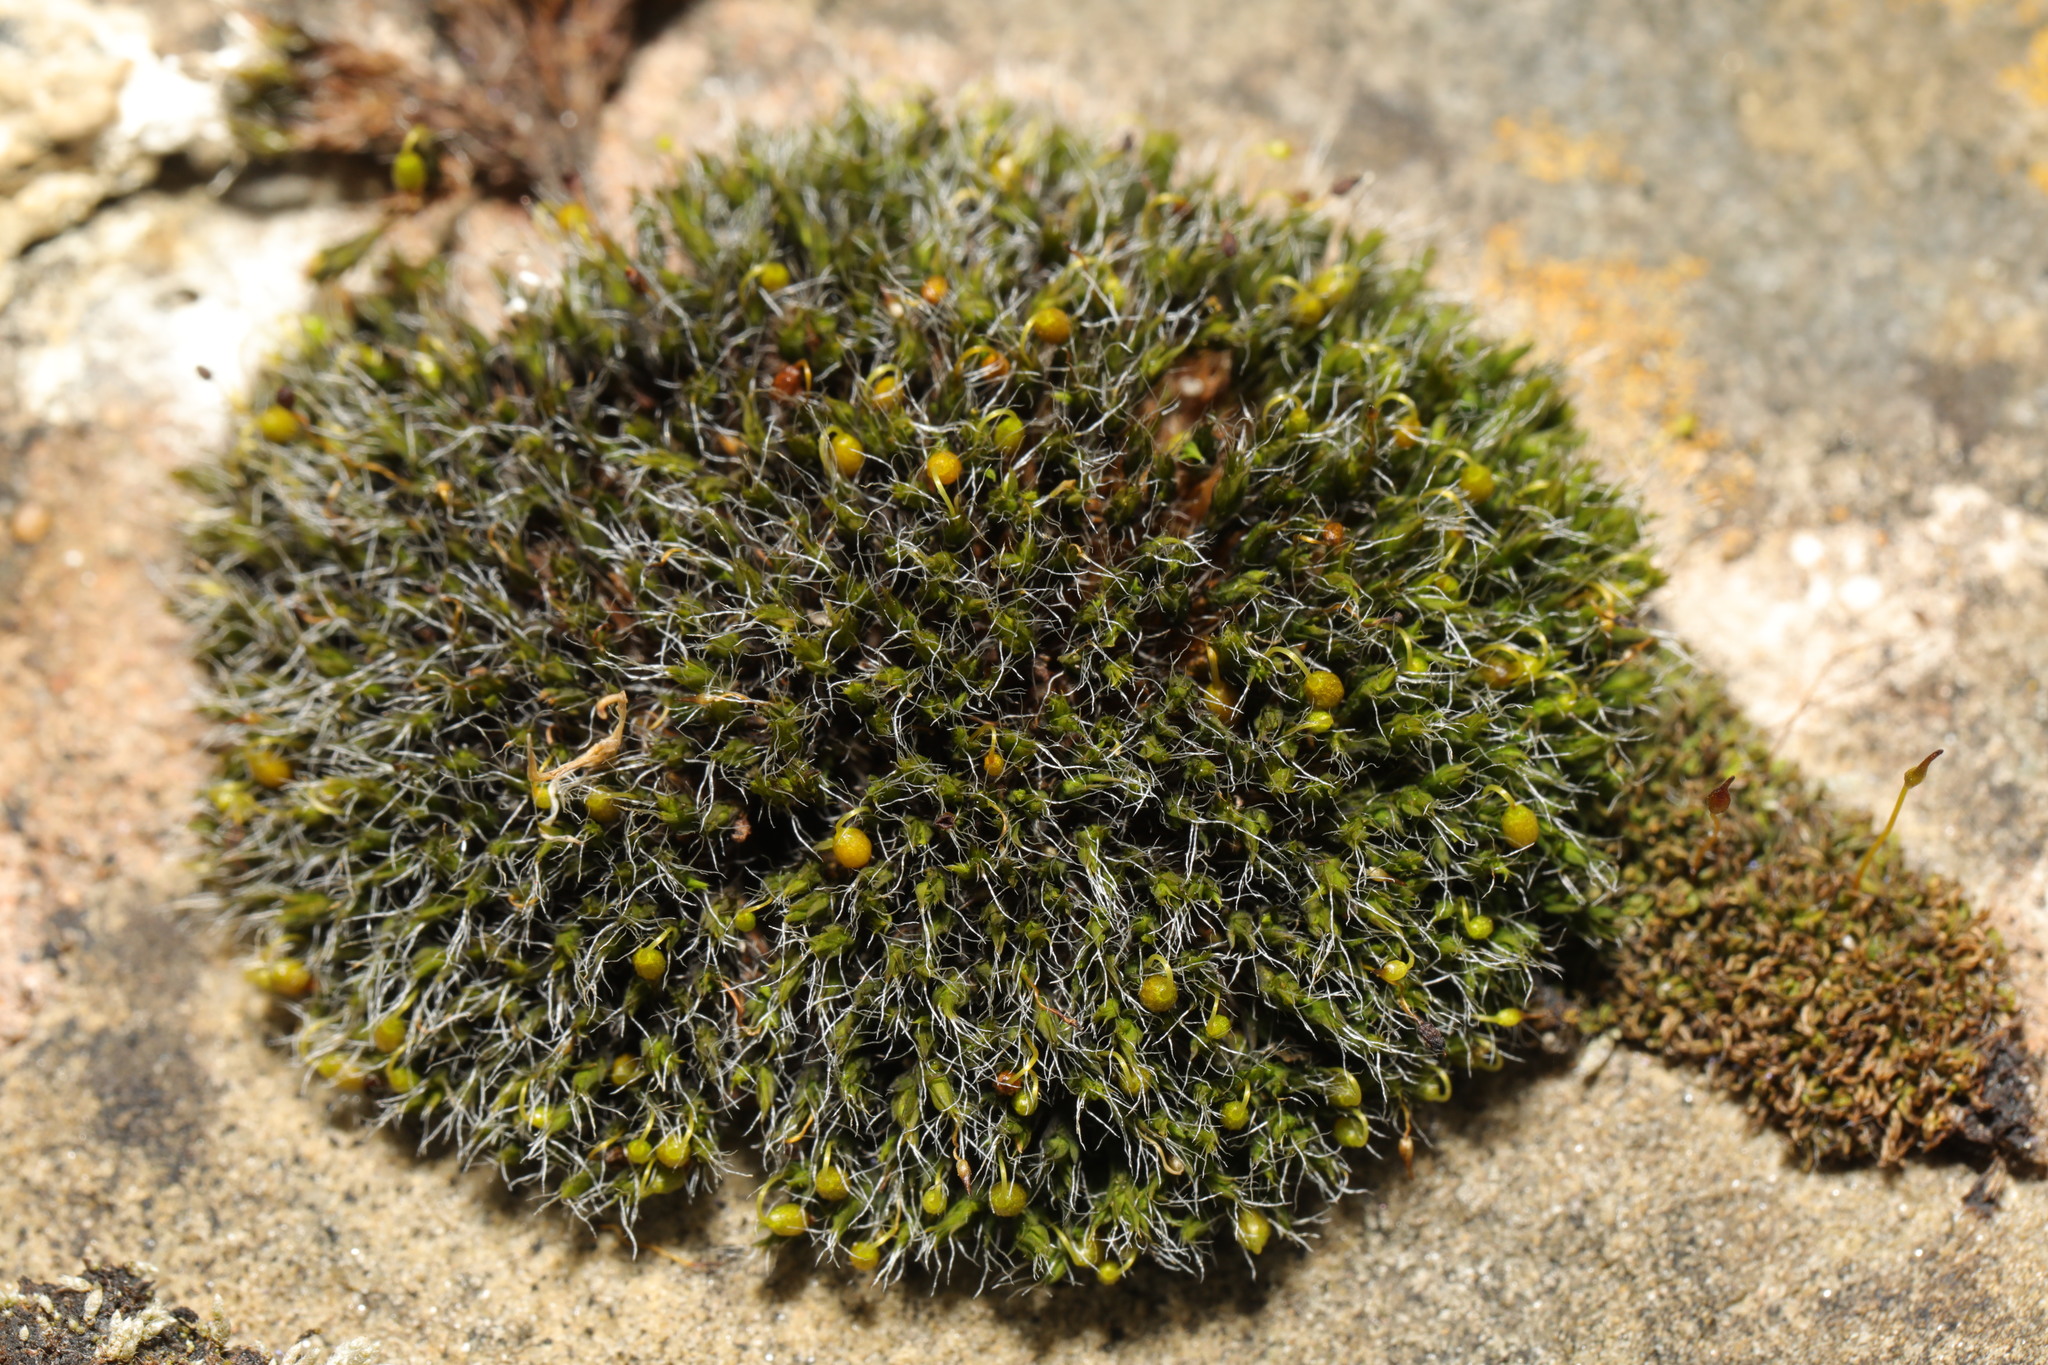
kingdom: Plantae
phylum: Bryophyta
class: Bryopsida
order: Grimmiales
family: Grimmiaceae
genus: Grimmia
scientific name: Grimmia pulvinata
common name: Grey-cushioned grimmia
